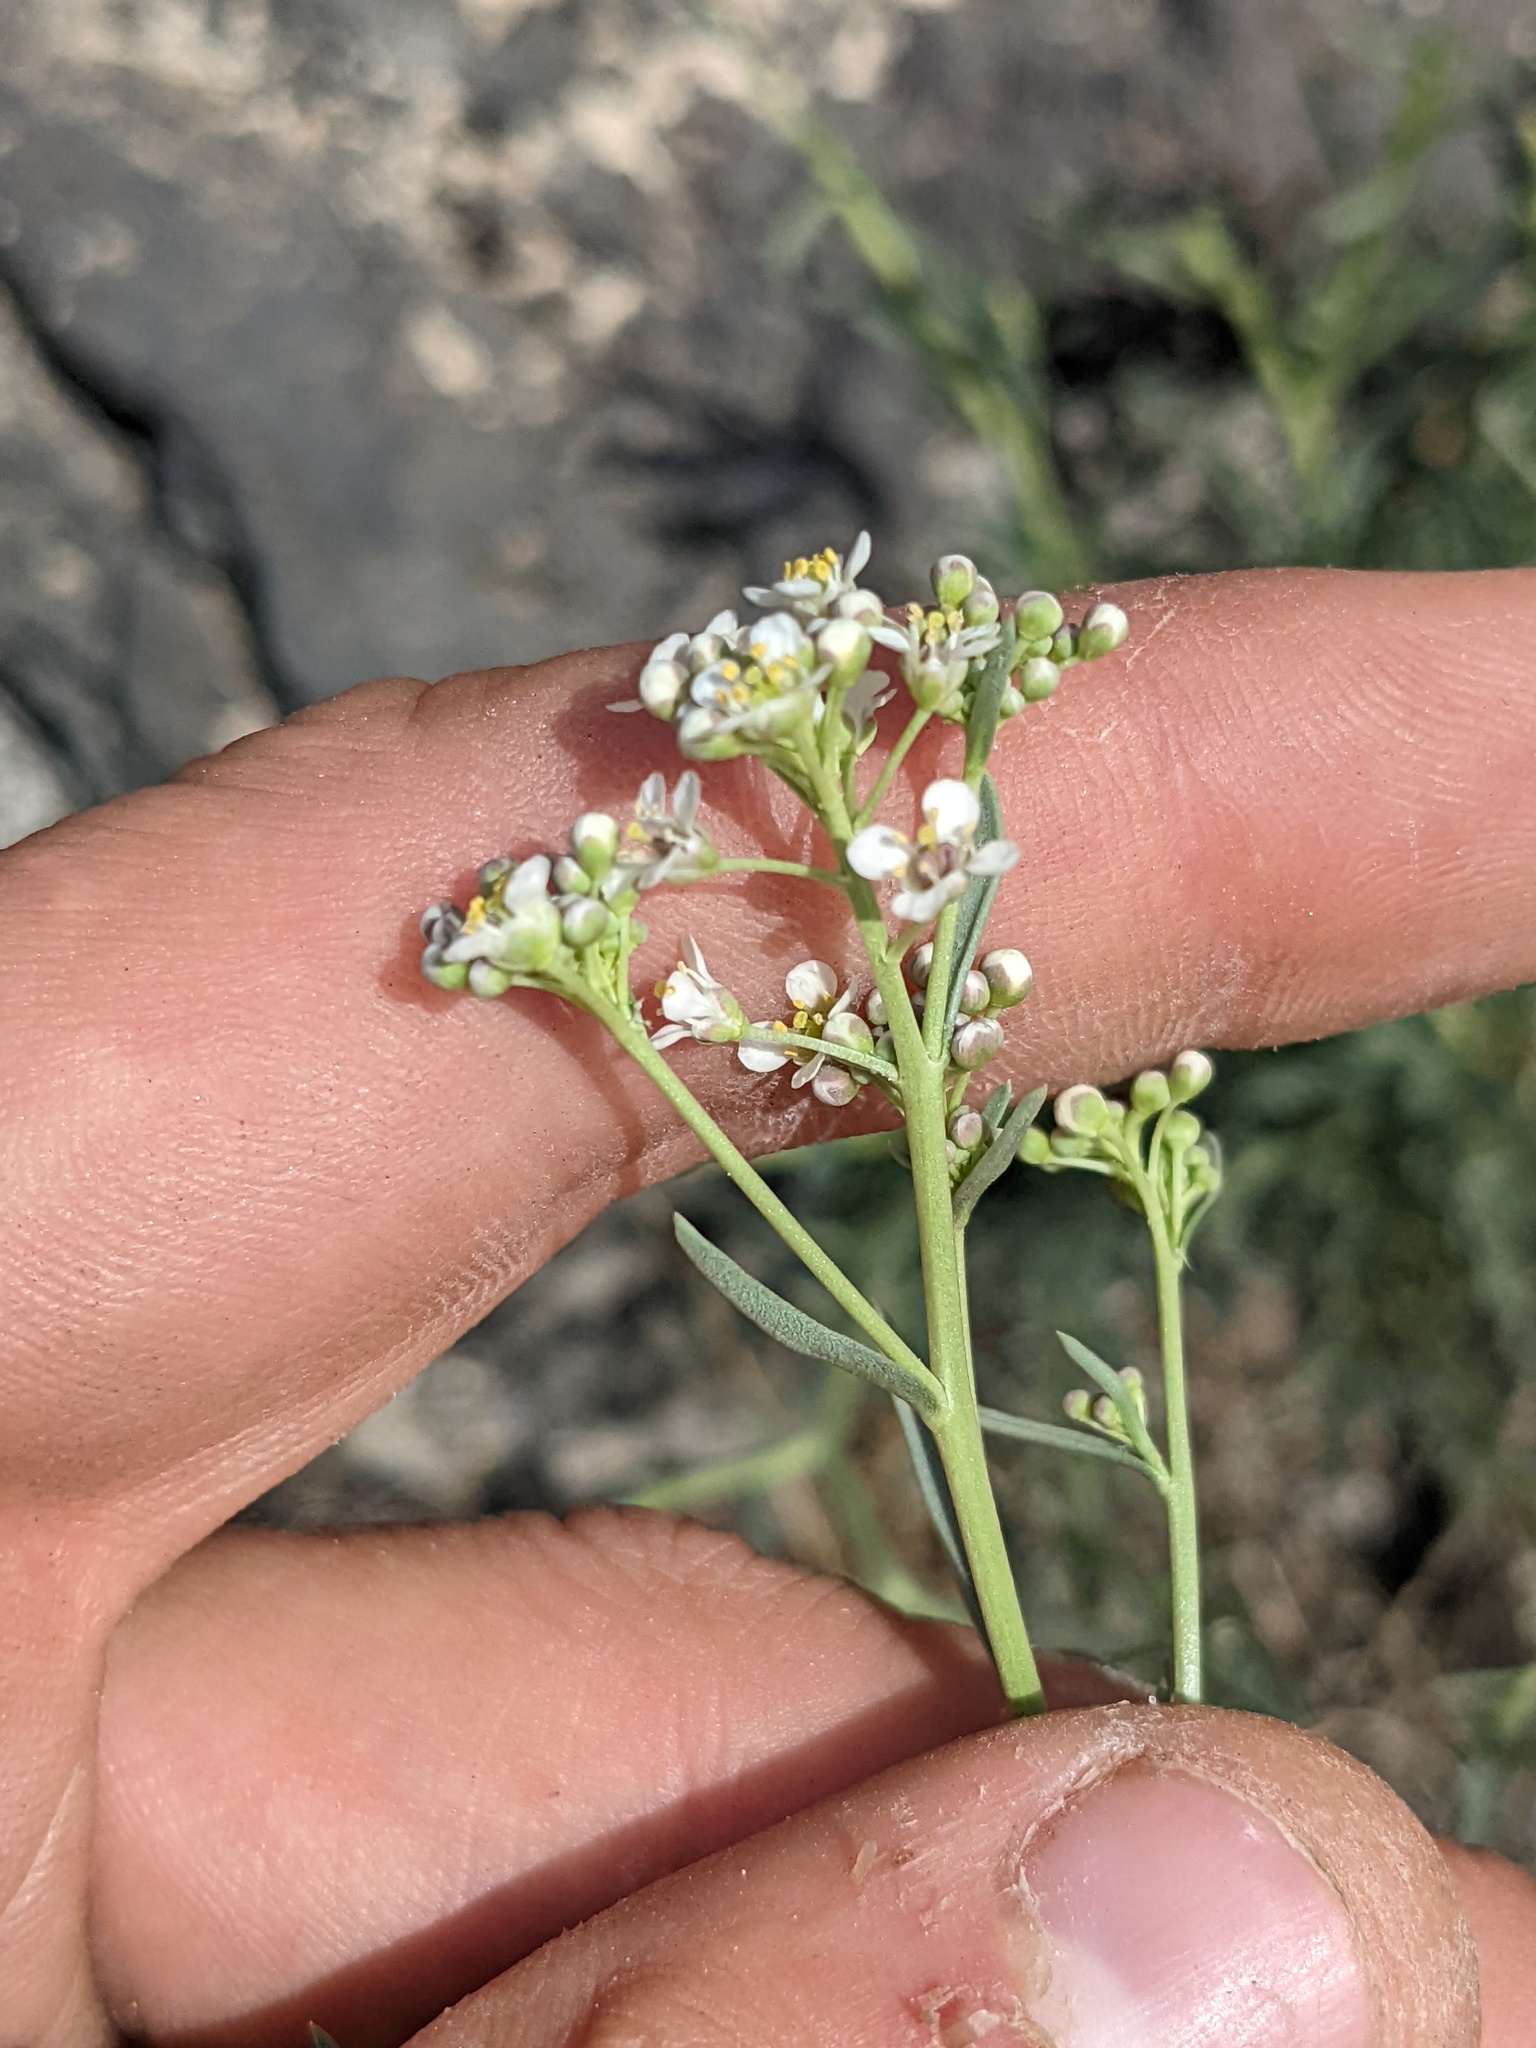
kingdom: Plantae
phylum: Tracheophyta
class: Magnoliopsida
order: Brassicales
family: Brassicaceae
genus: Lepidium
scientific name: Lepidium fremontii
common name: Fremont's pepperwort
